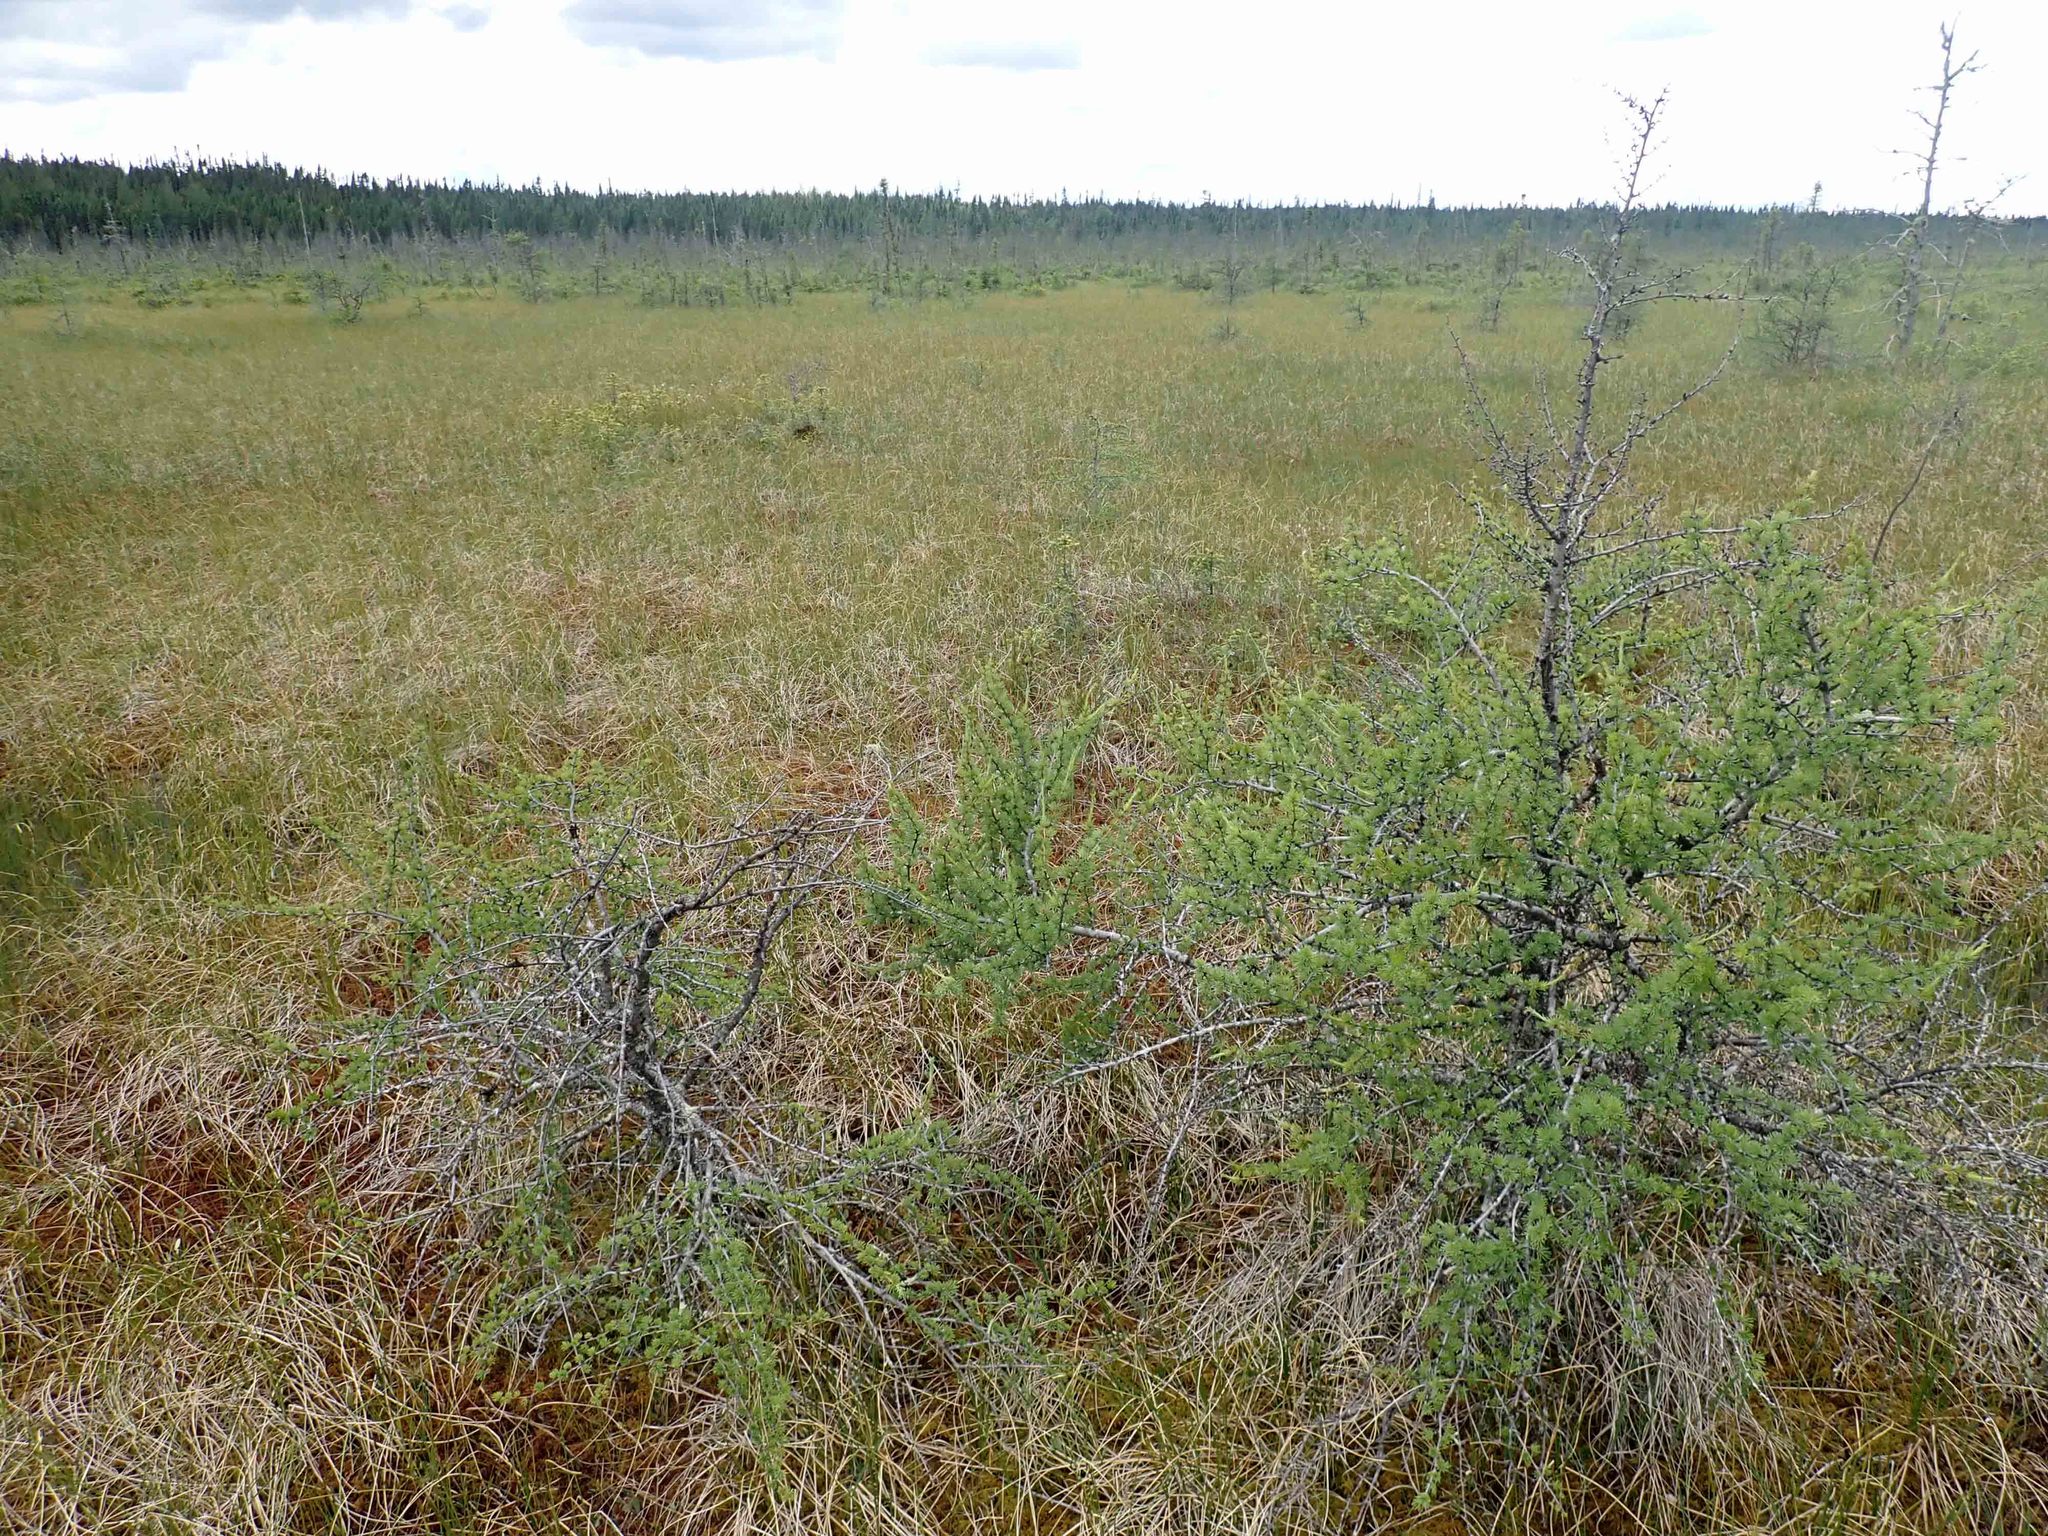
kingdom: Plantae
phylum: Tracheophyta
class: Pinopsida
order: Pinales
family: Pinaceae
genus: Larix
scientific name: Larix laricina
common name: American larch
